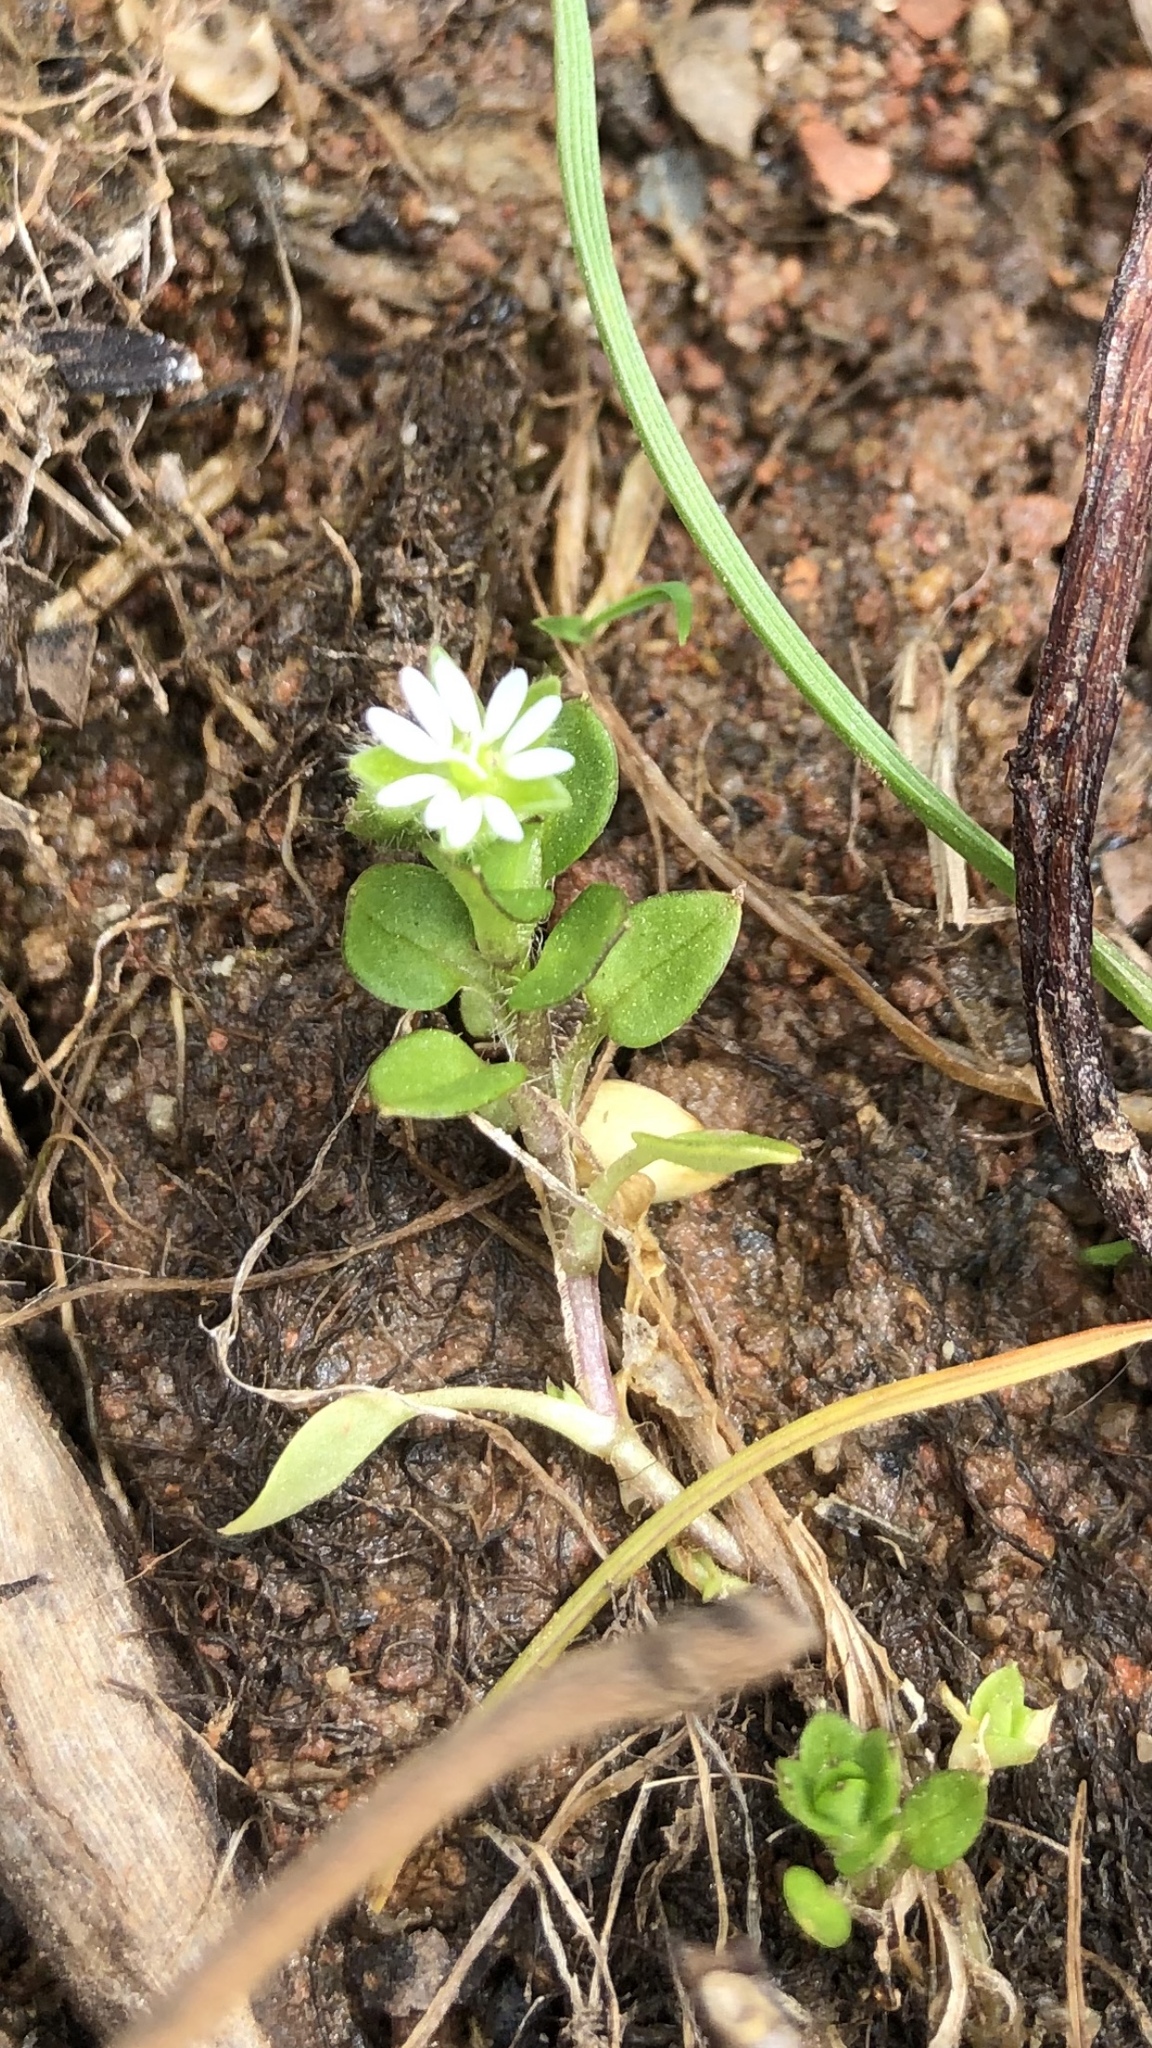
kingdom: Plantae
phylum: Tracheophyta
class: Magnoliopsida
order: Caryophyllales
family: Caryophyllaceae
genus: Stellaria
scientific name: Stellaria media
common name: Common chickweed
